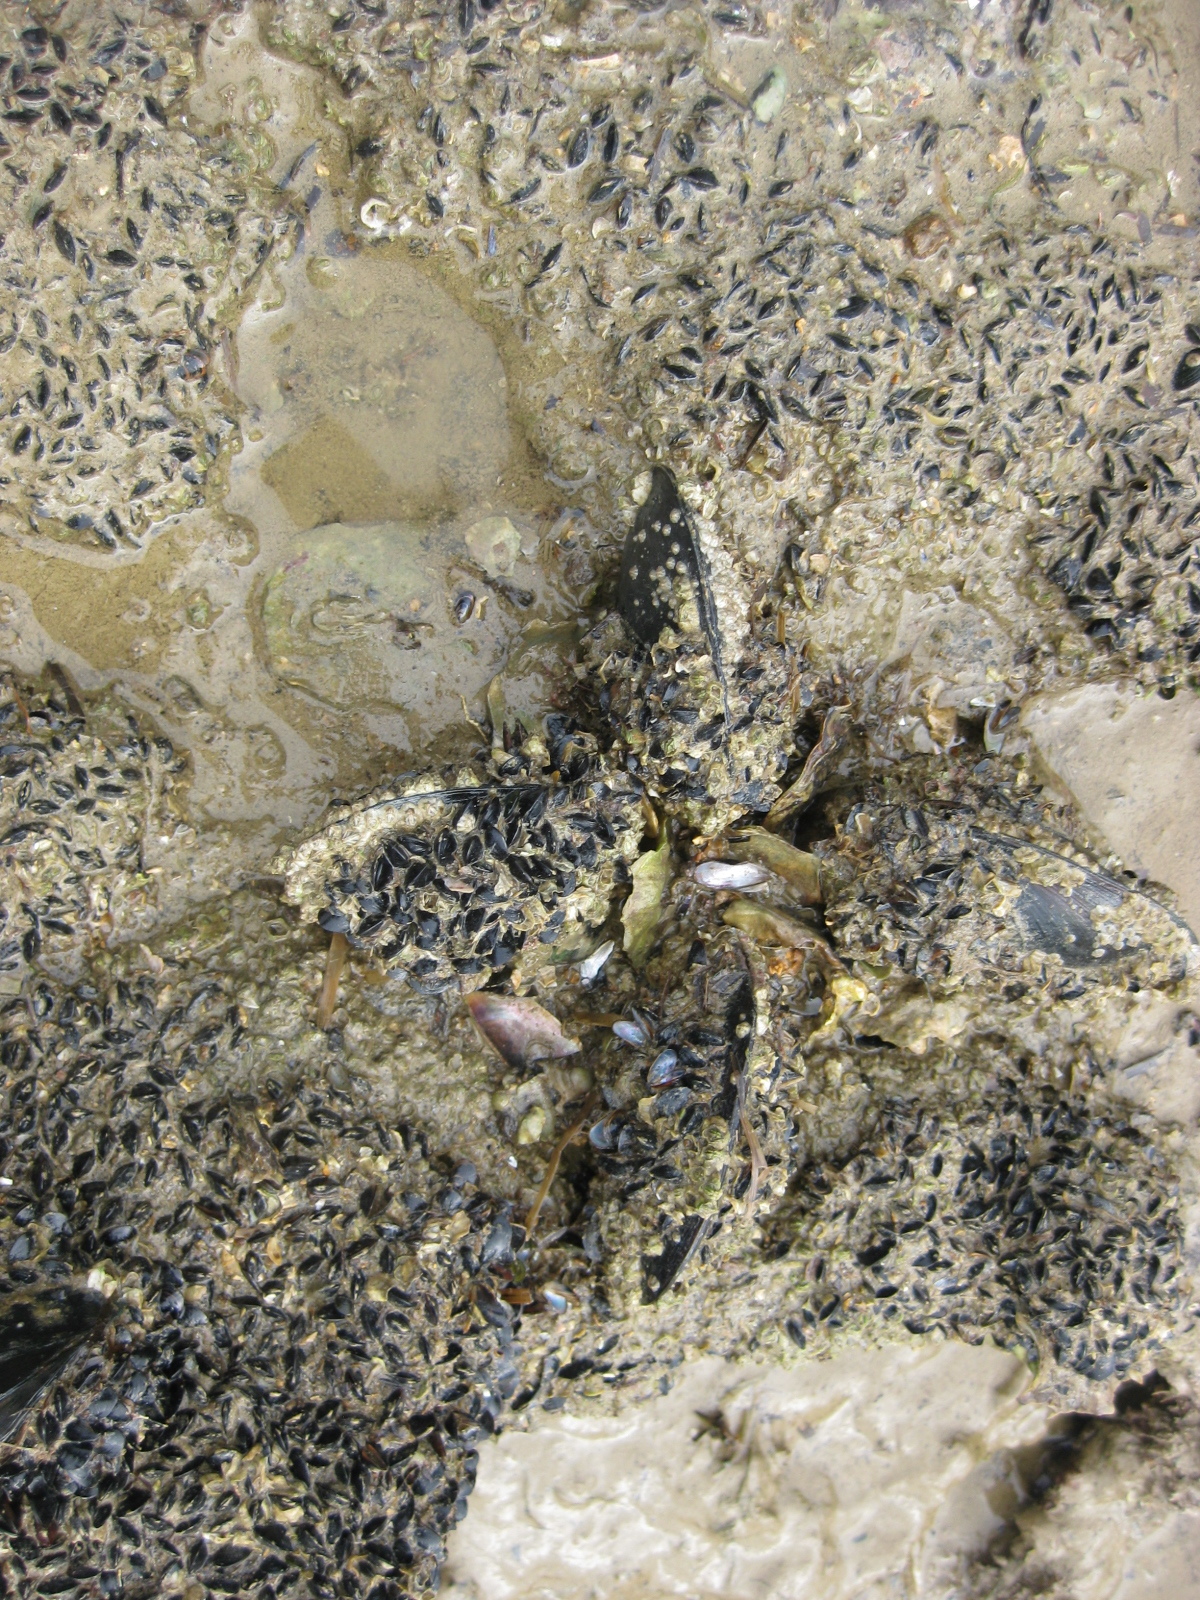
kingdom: Animalia
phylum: Mollusca
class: Bivalvia
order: Mytilida
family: Mytilidae
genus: Xenostrobus
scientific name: Xenostrobus neozelanicus
